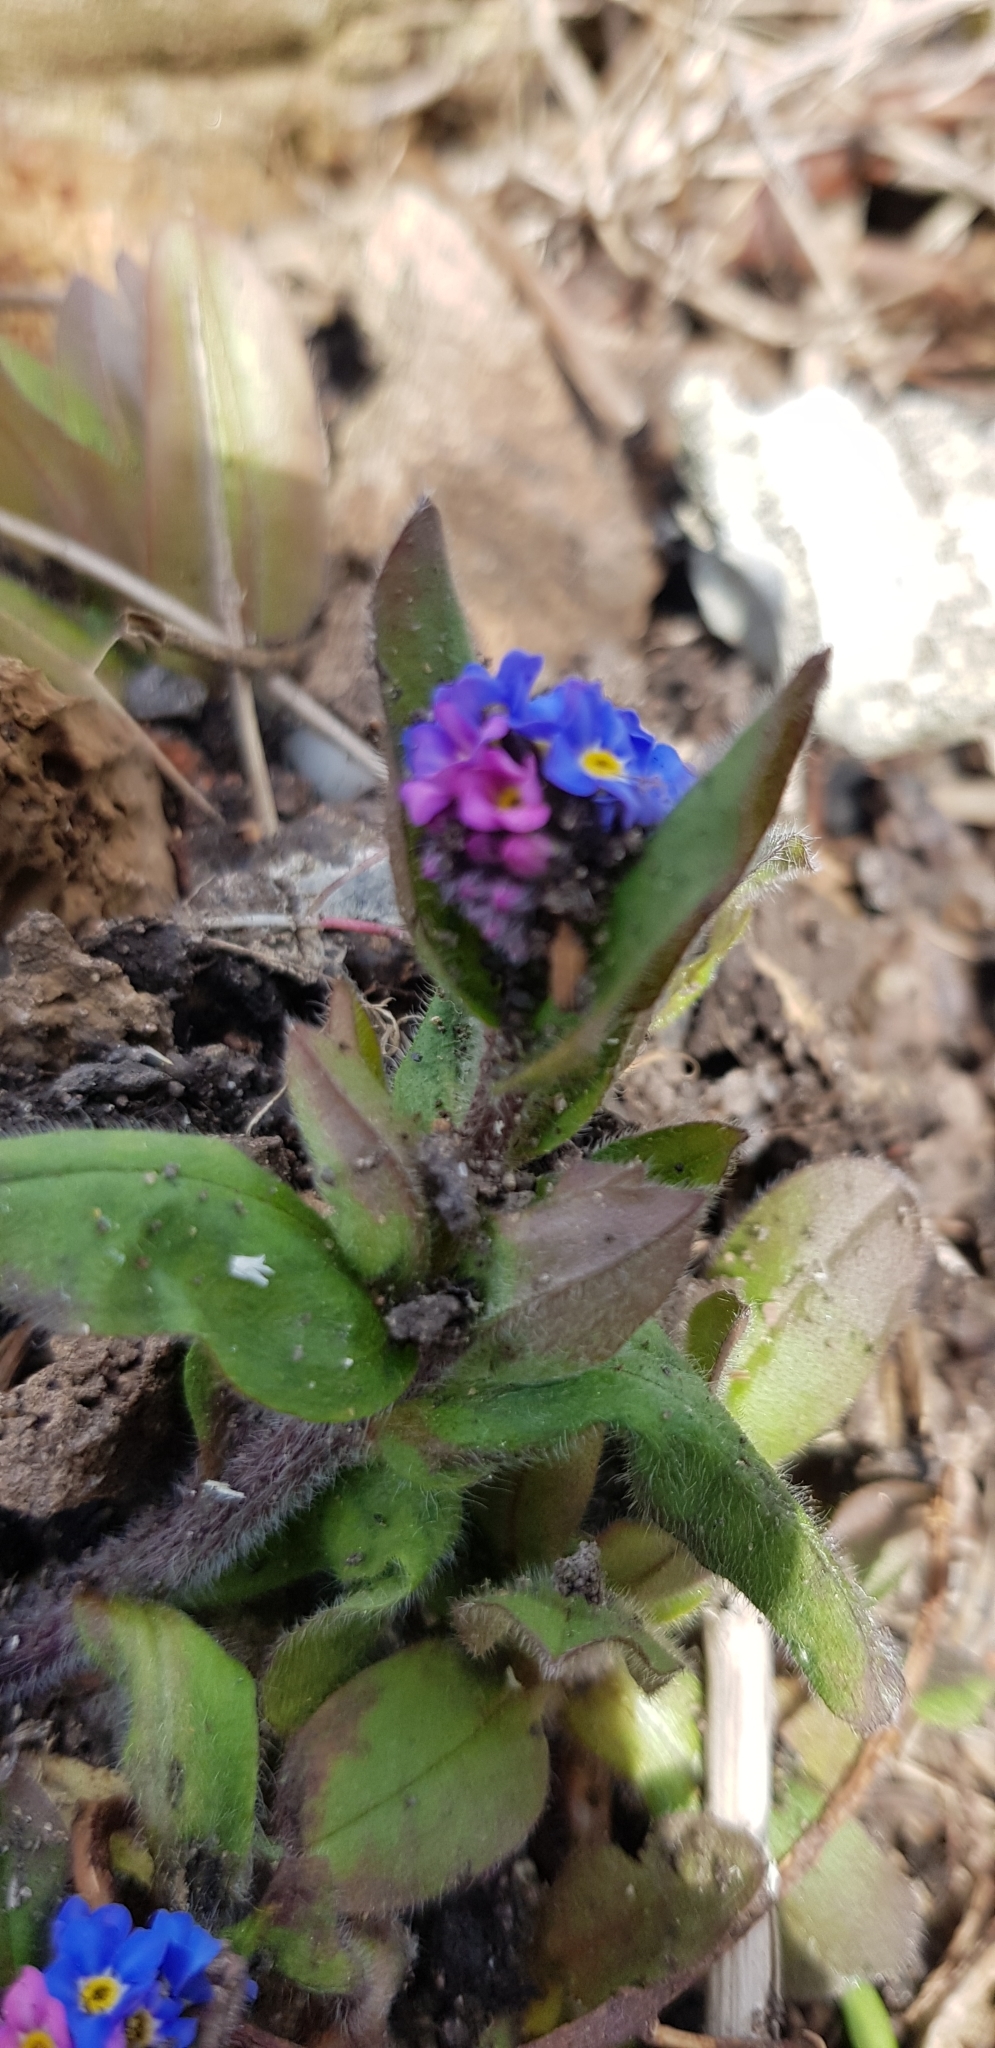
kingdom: Plantae
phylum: Tracheophyta
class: Magnoliopsida
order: Boraginales
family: Boraginaceae
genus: Myosotis
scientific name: Myosotis sylvatica
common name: Wood forget-me-not
